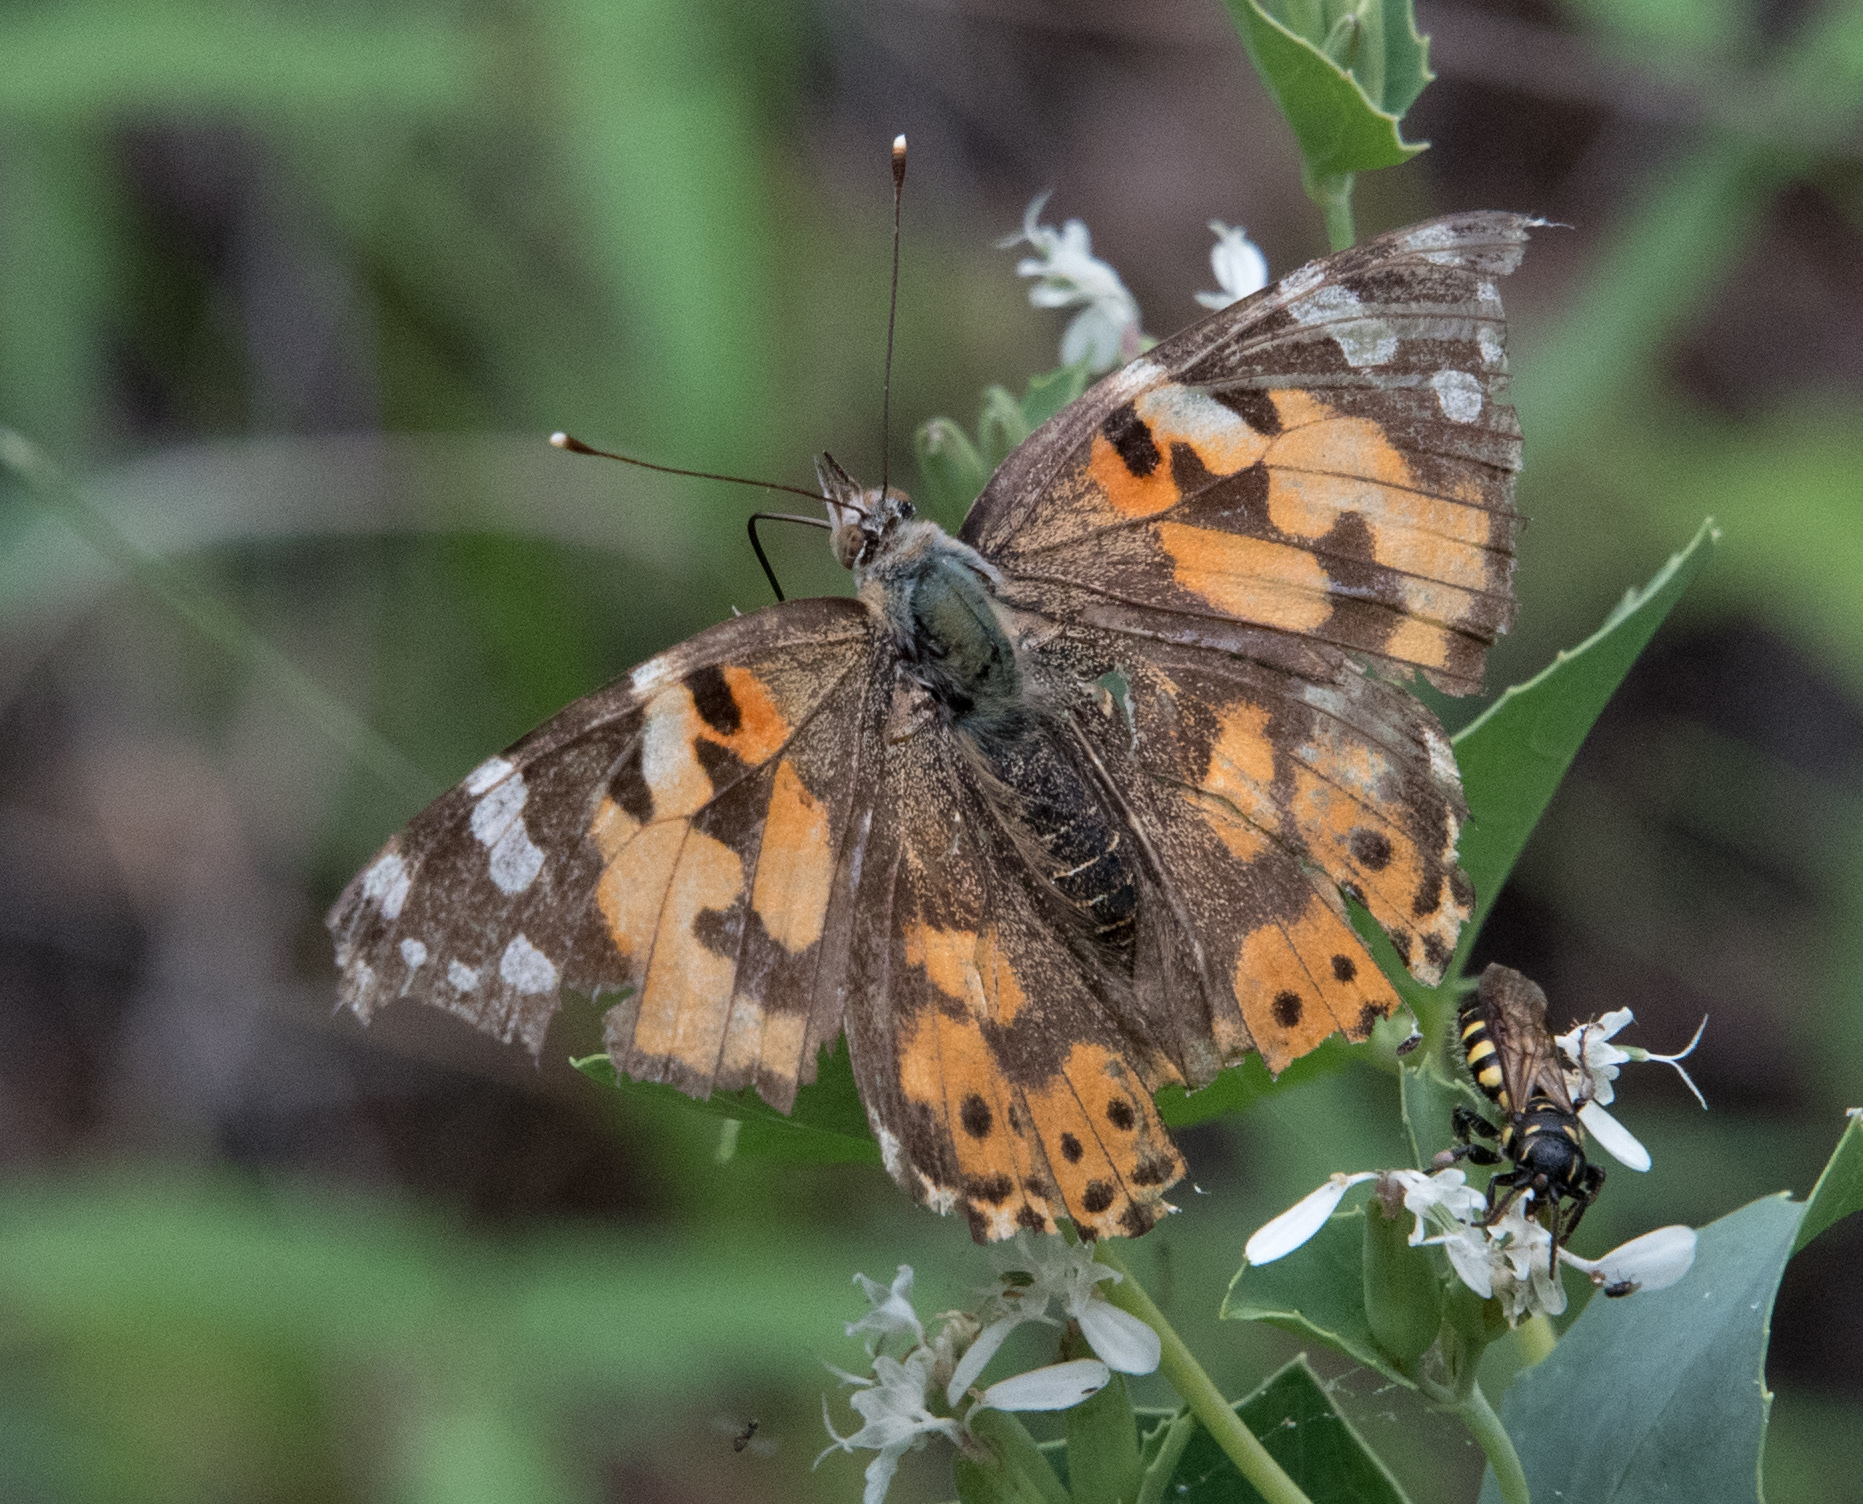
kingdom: Animalia
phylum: Arthropoda
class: Insecta
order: Lepidoptera
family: Nymphalidae
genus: Vanessa
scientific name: Vanessa cardui
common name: Painted lady
